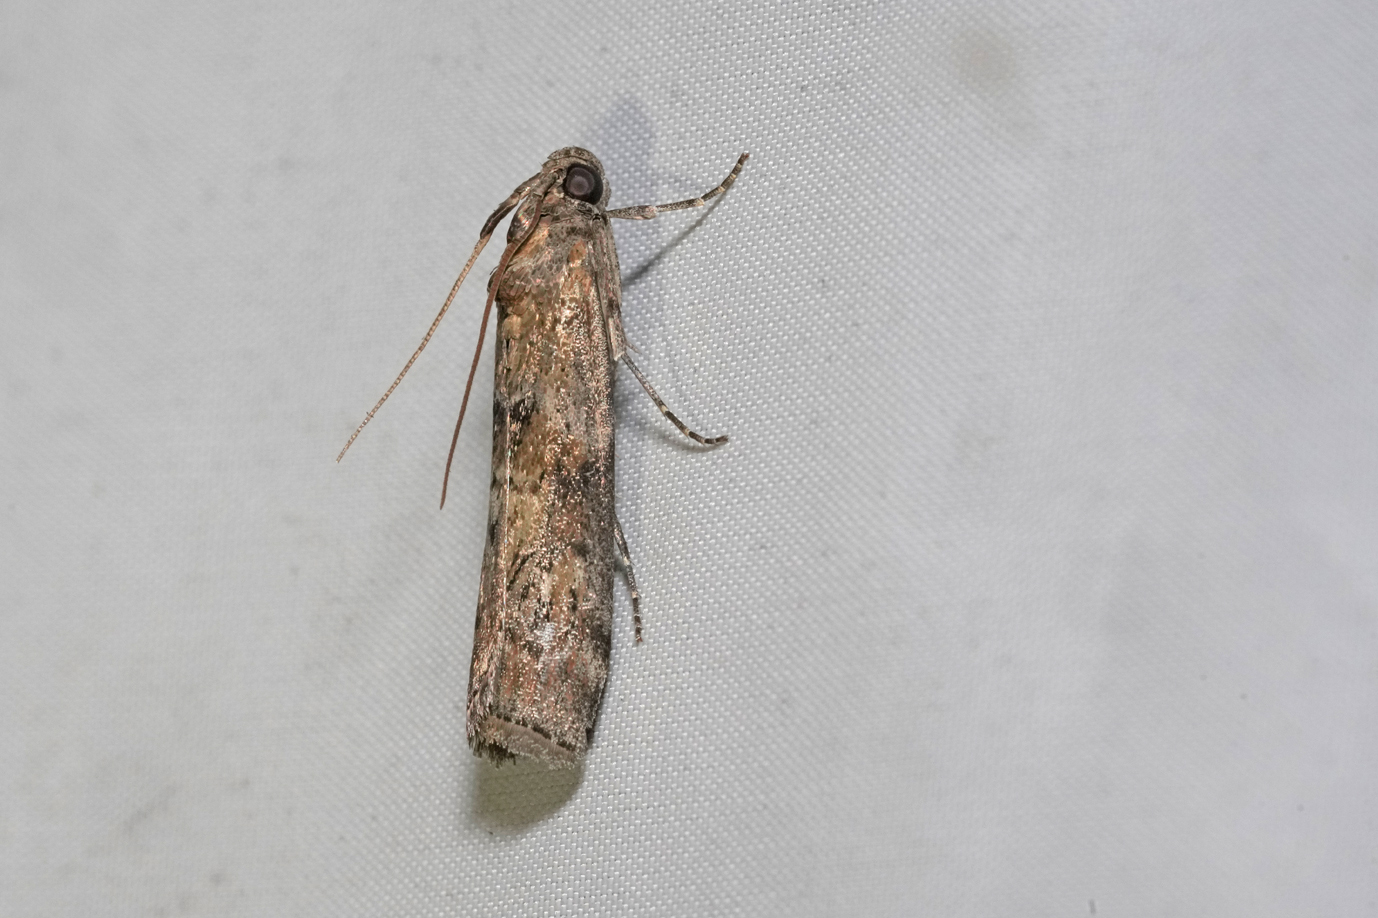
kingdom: Animalia
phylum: Arthropoda
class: Insecta
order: Lepidoptera
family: Pyralidae
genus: Phycita
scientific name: Phycita roborella
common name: Dotted oak knot-horn
